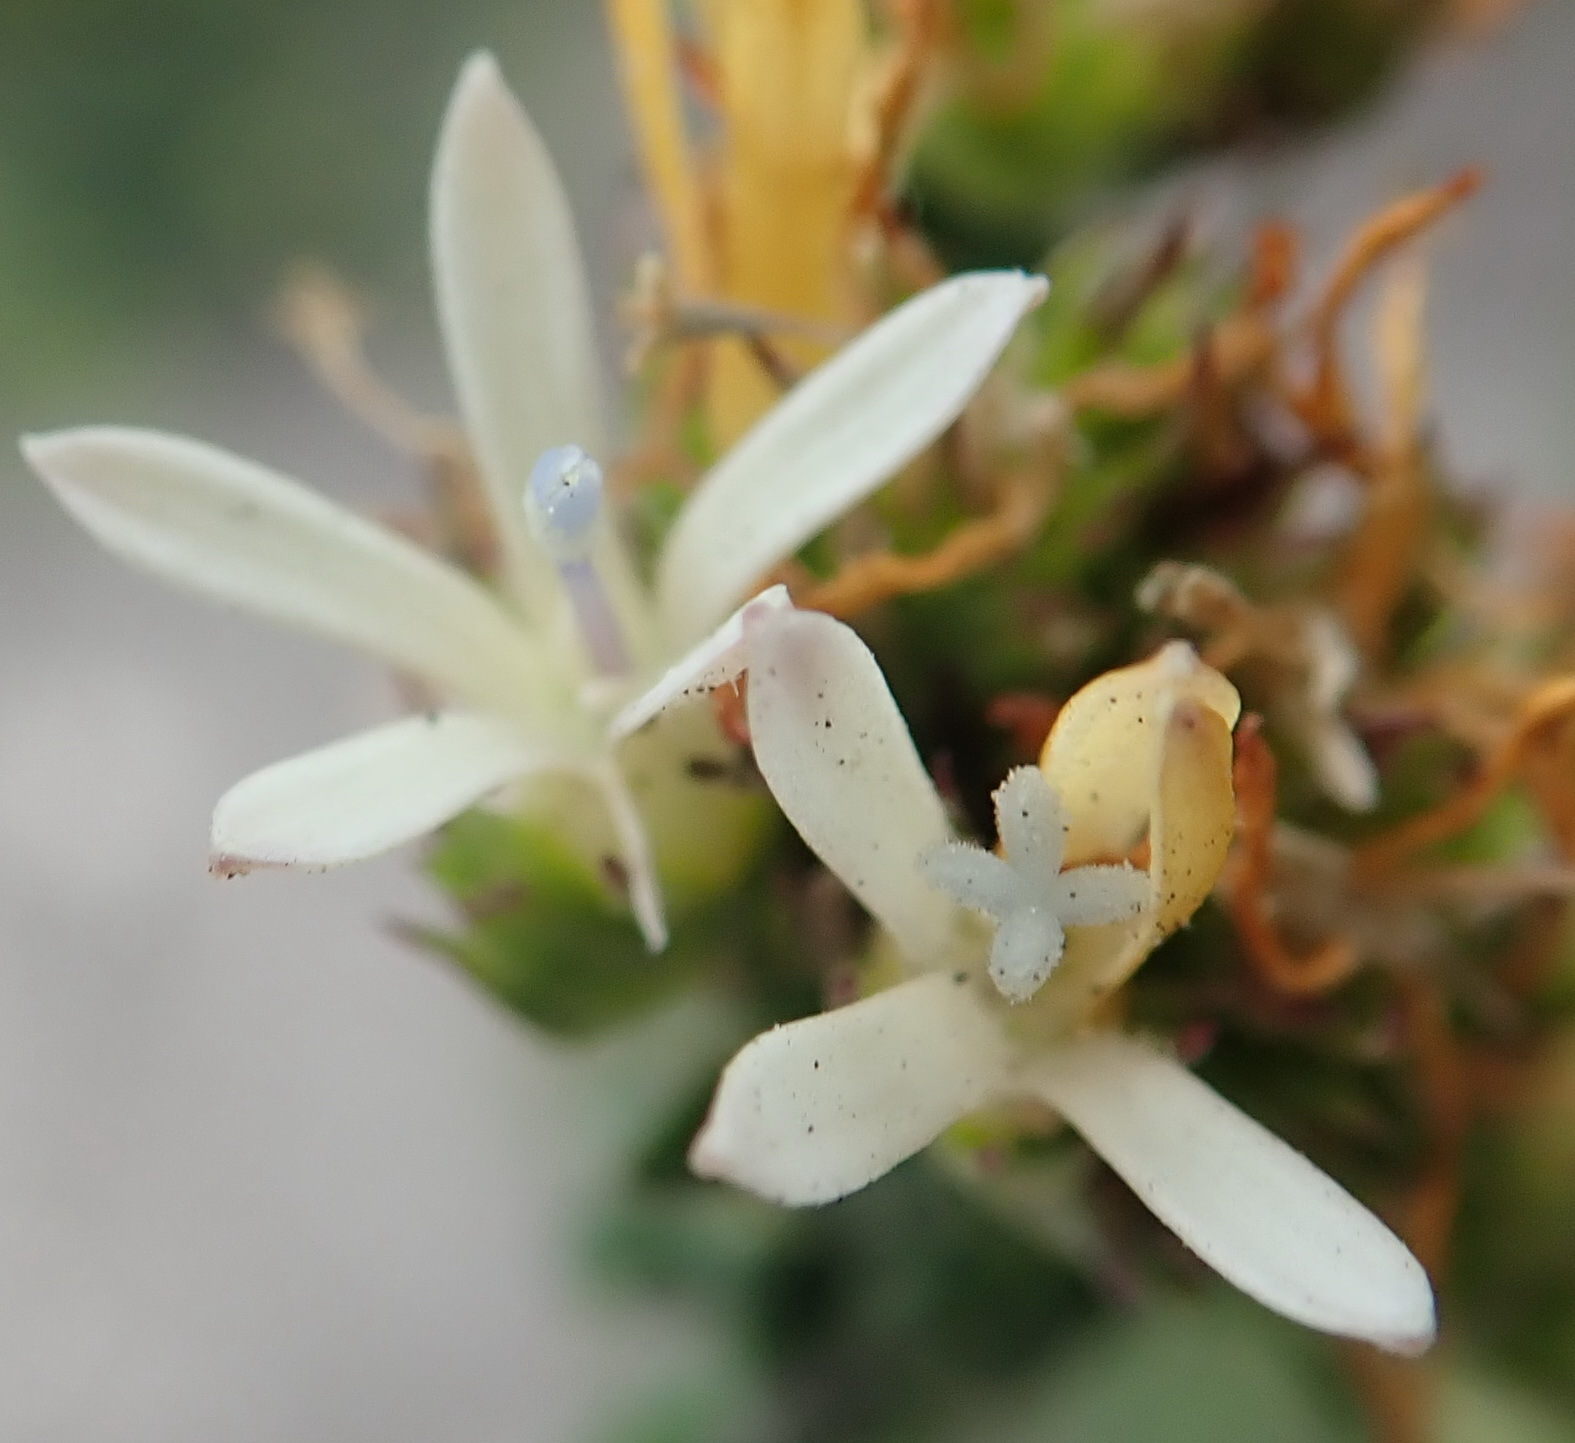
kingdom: Plantae
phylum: Tracheophyta
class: Magnoliopsida
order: Asterales
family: Campanulaceae
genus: Wahlenbergia
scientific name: Wahlenbergia desmantha
